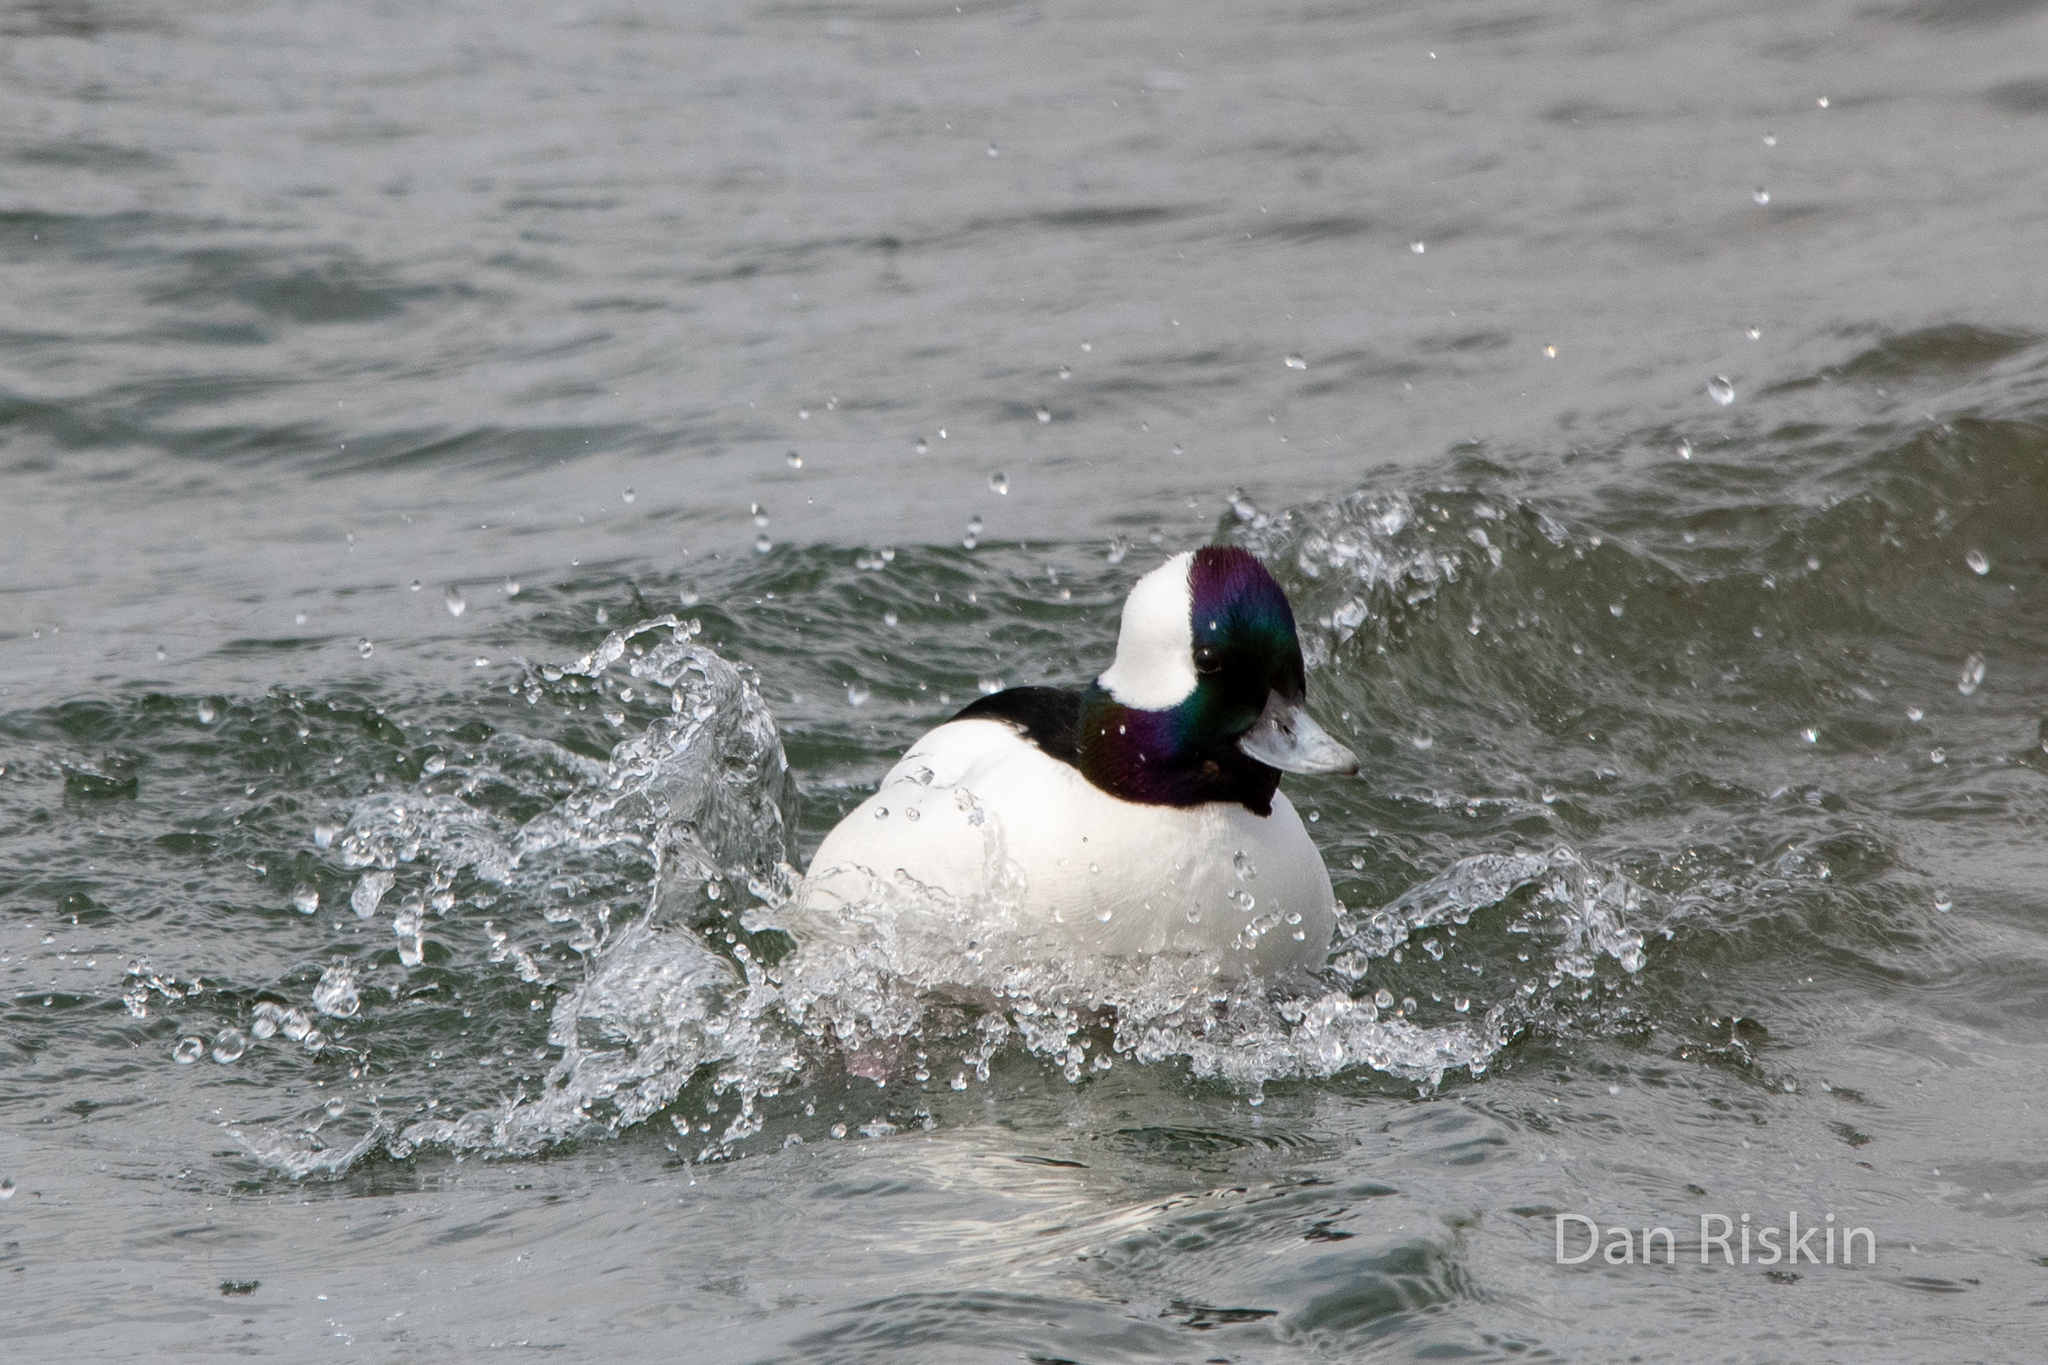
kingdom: Animalia
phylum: Chordata
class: Aves
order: Anseriformes
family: Anatidae
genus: Bucephala
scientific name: Bucephala albeola
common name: Bufflehead
